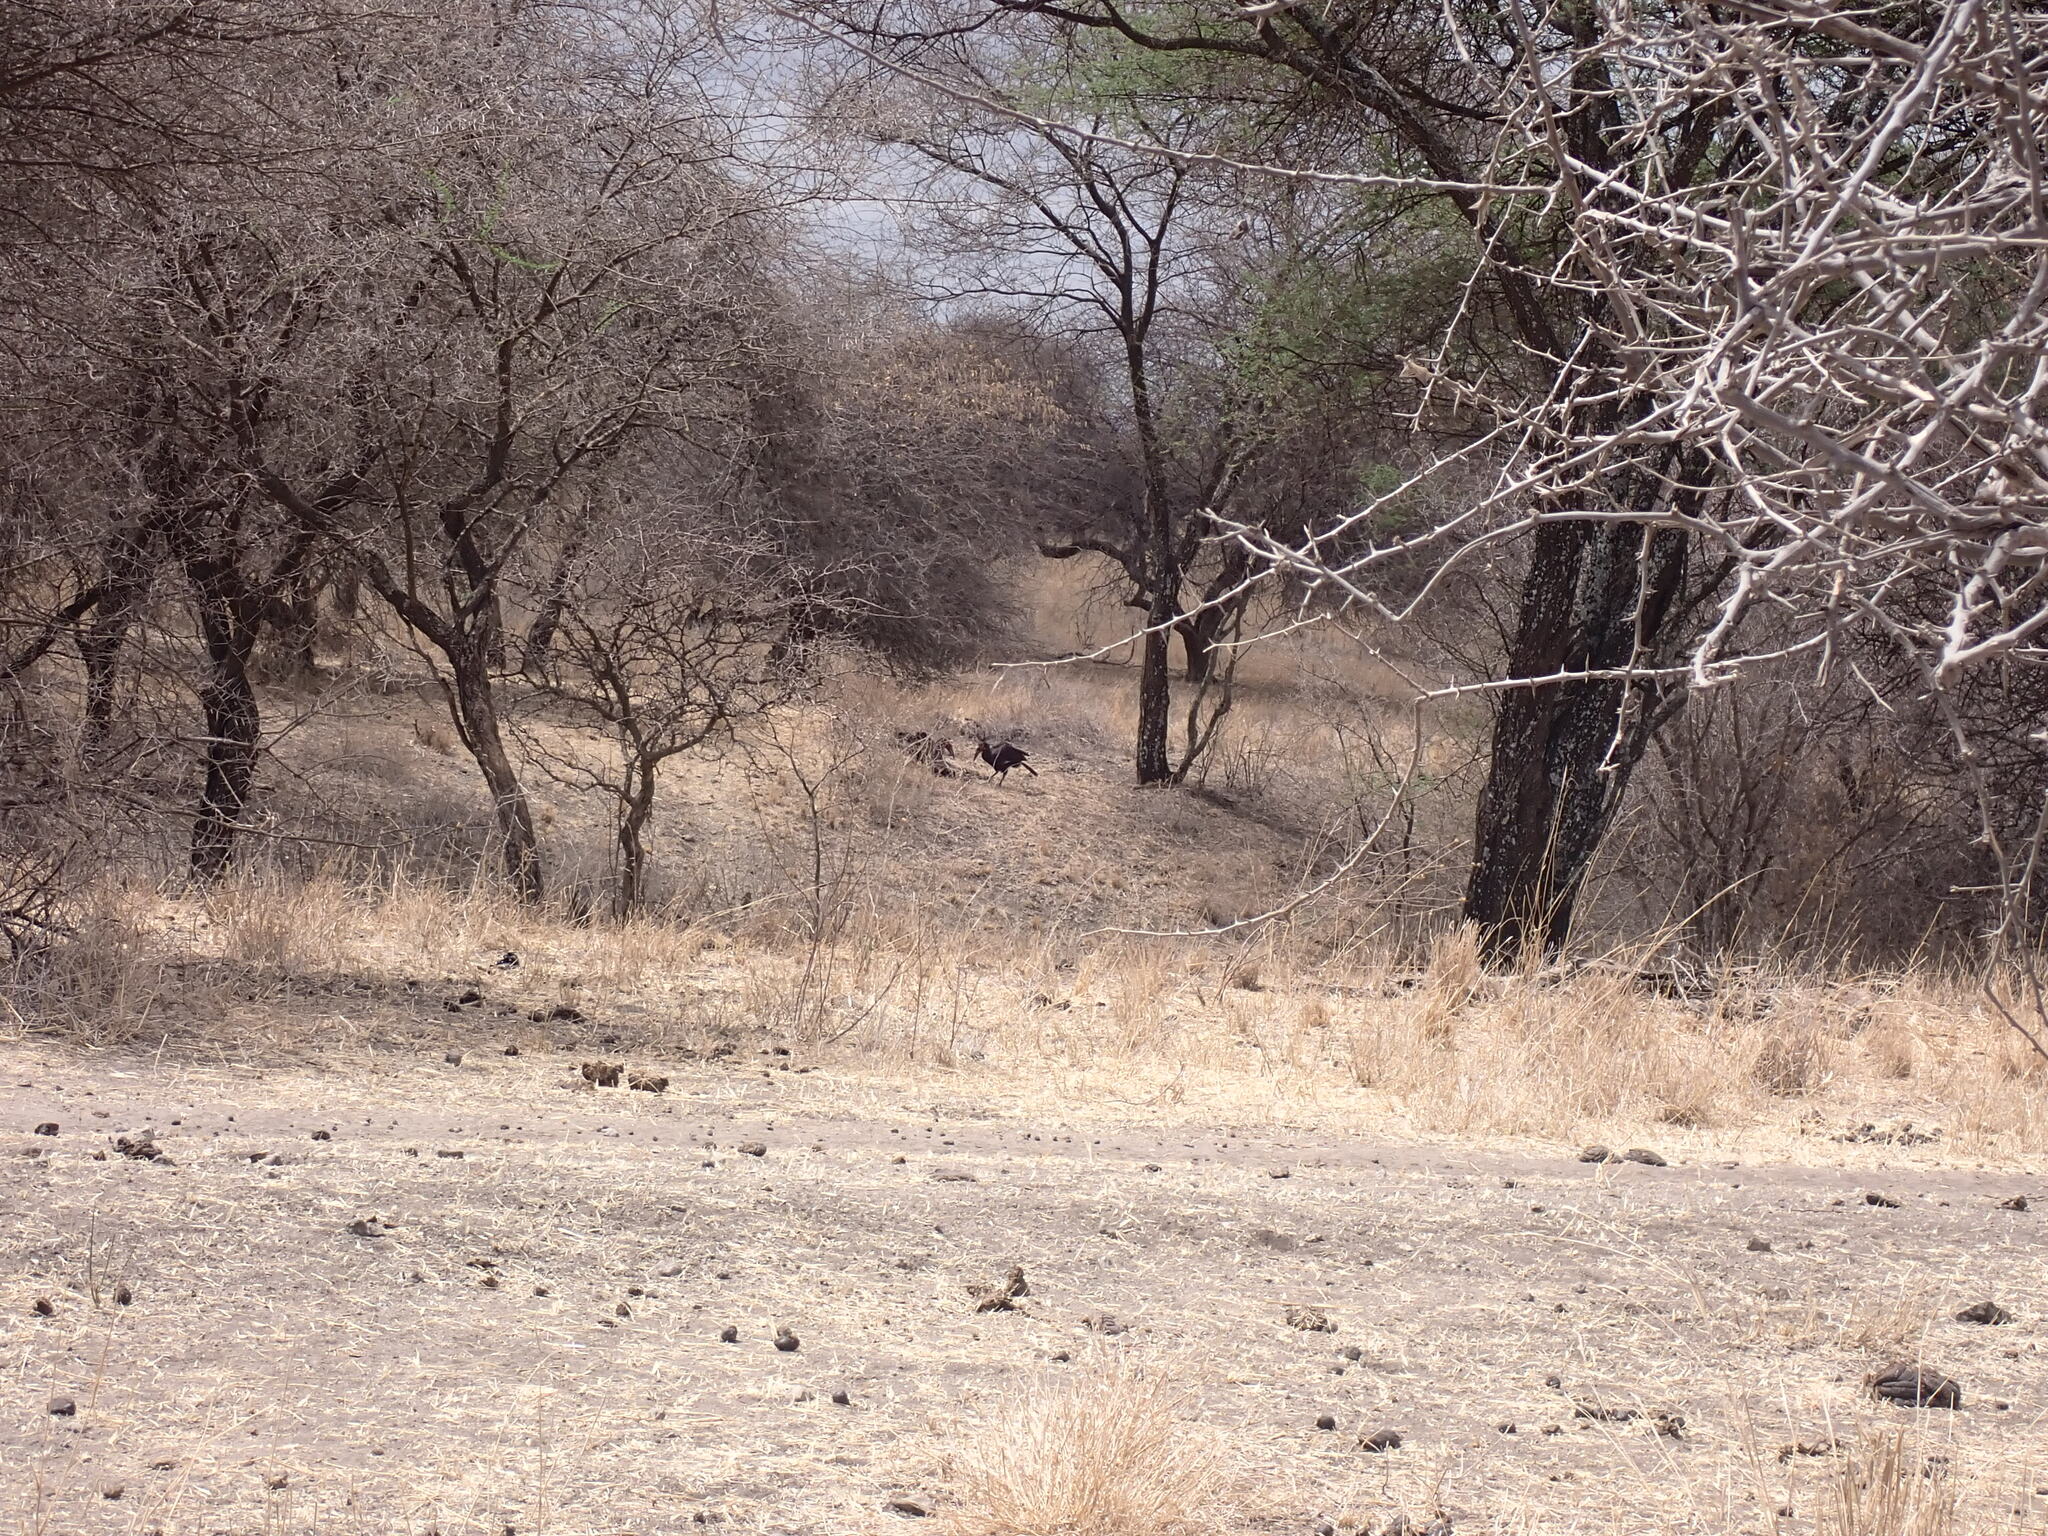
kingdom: Animalia
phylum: Chordata
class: Aves
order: Bucerotiformes
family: Bucorvidae
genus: Bucorvus
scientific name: Bucorvus leadbeateri
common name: Southern ground-hornbill
